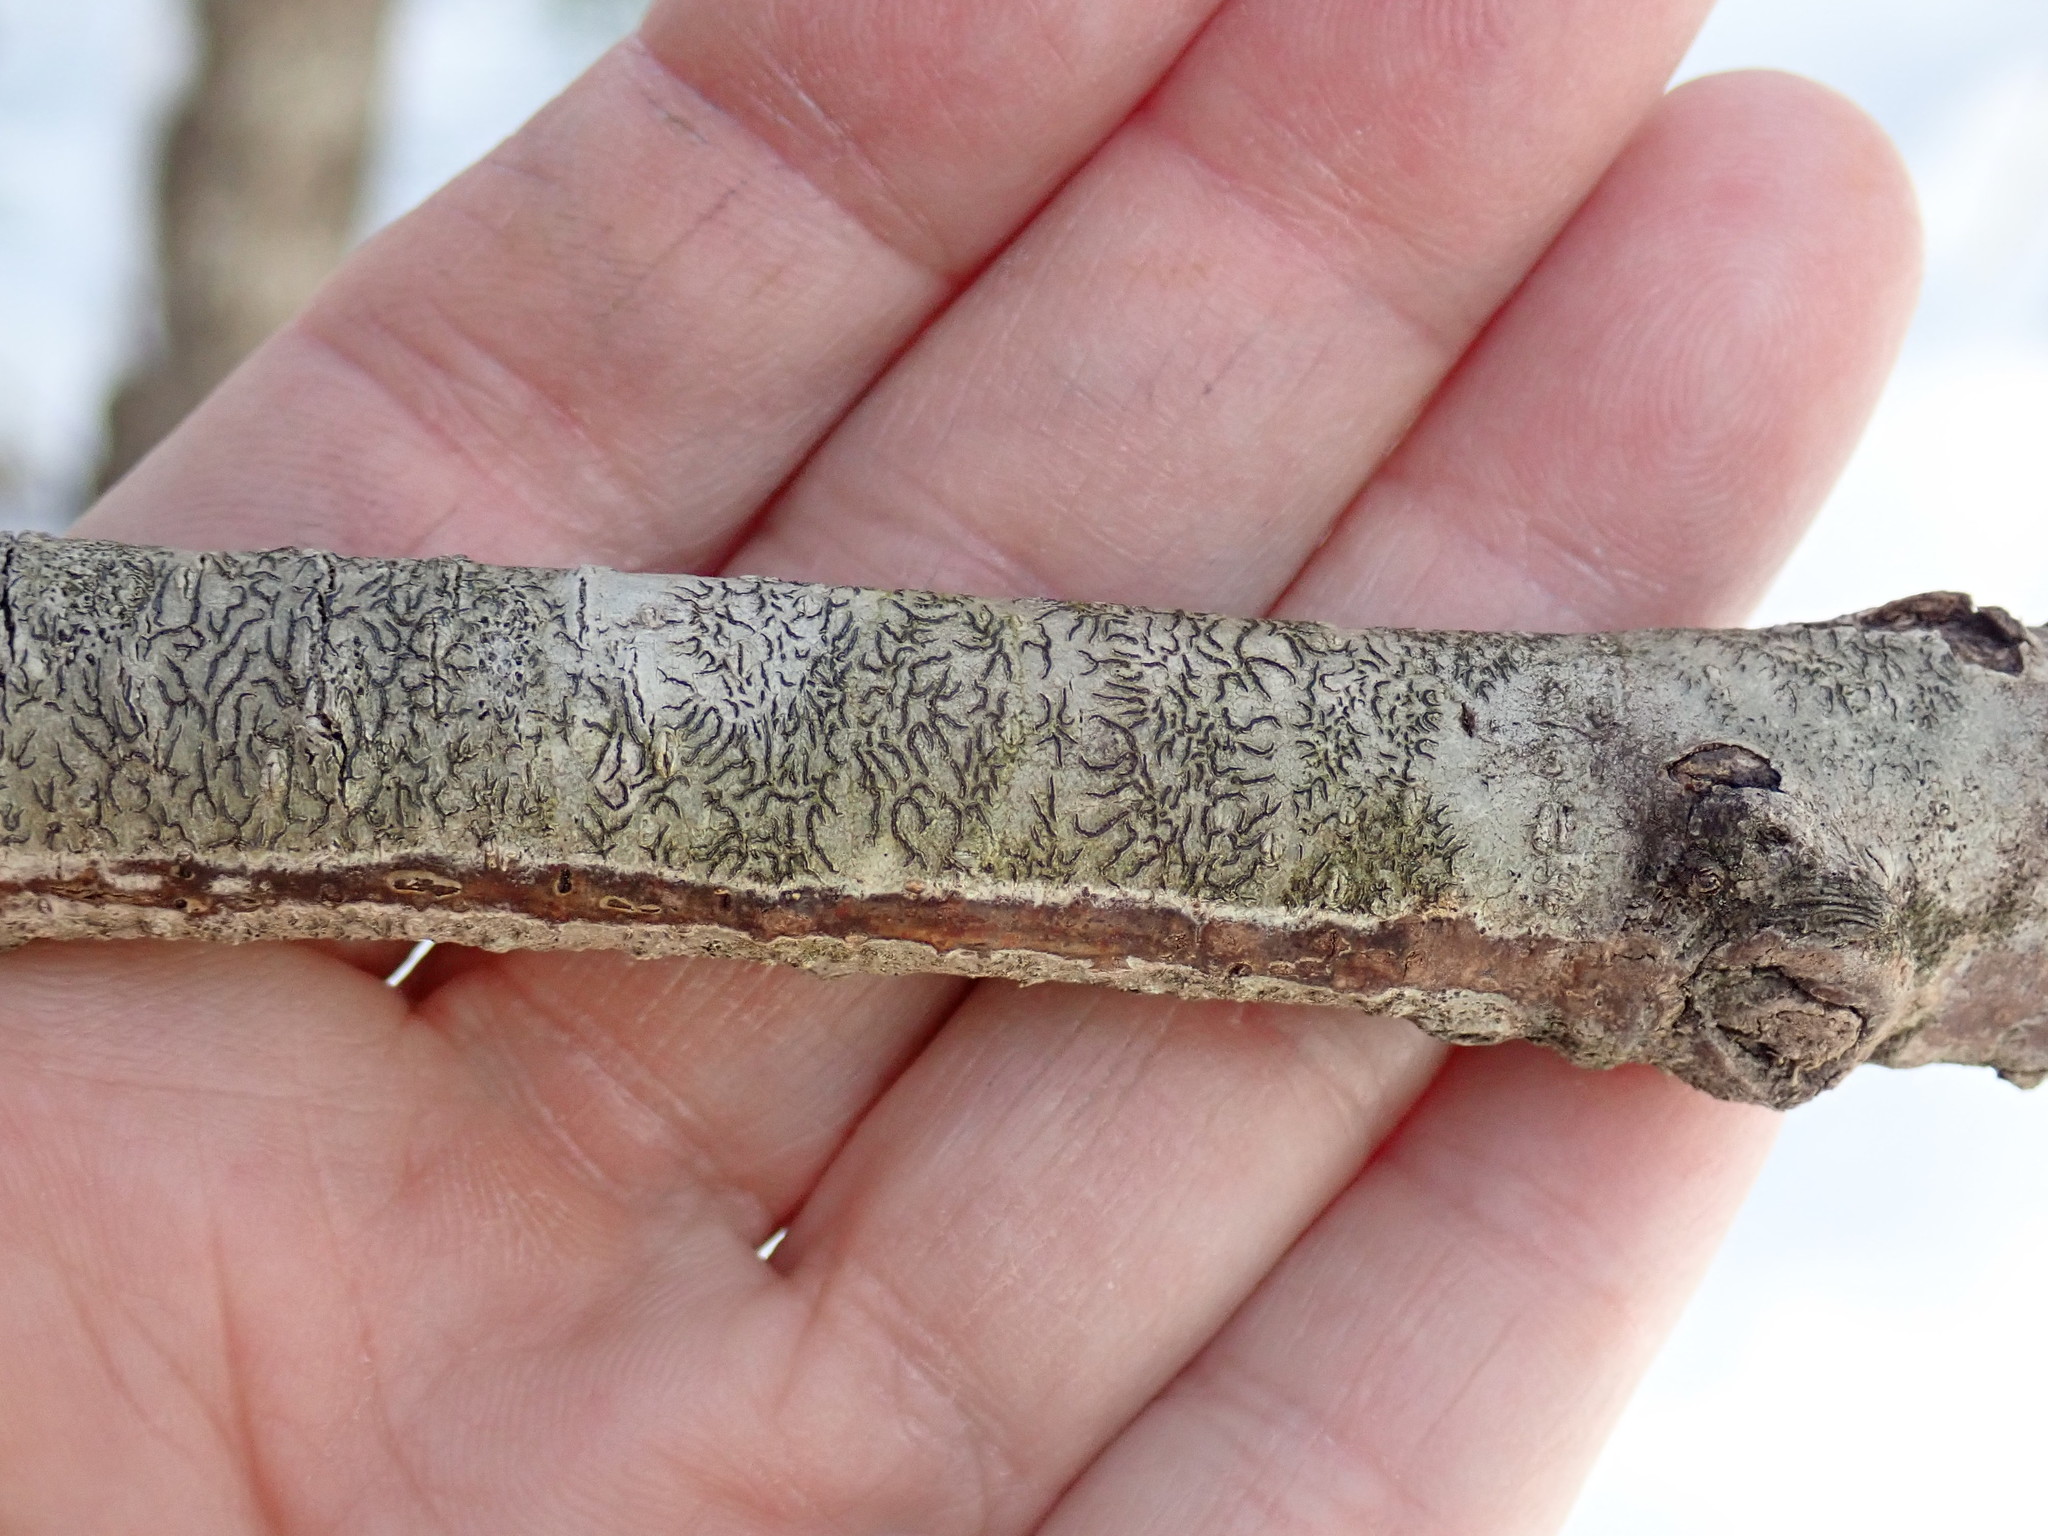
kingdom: Fungi
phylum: Ascomycota
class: Lecanoromycetes
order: Ostropales
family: Graphidaceae
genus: Graphis
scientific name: Graphis scripta
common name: Script lichen
